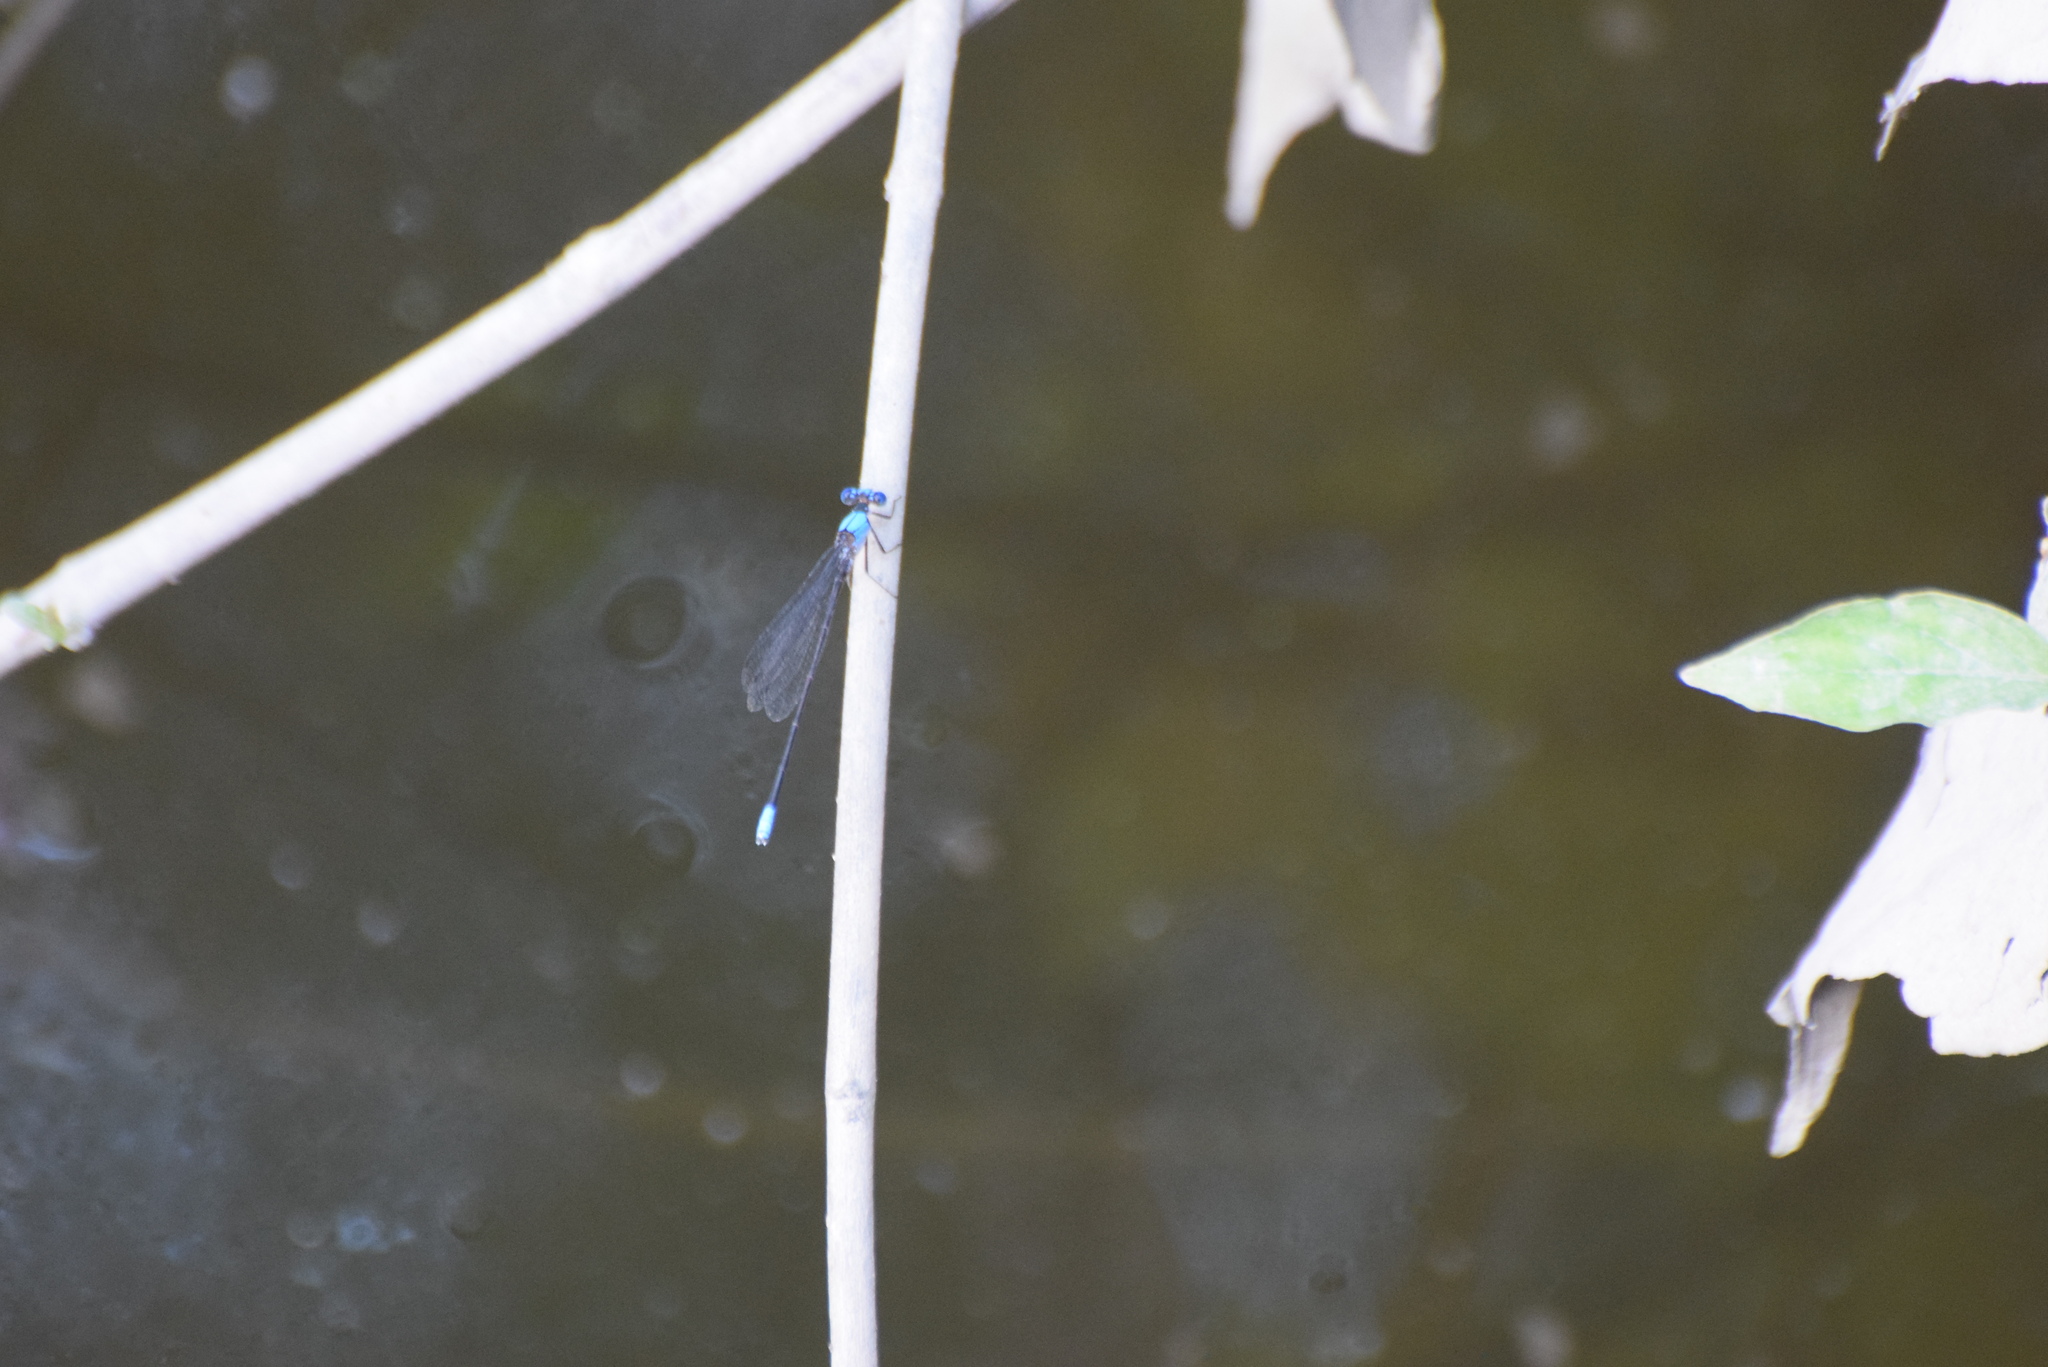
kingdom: Animalia
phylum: Arthropoda
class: Insecta
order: Odonata
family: Coenagrionidae
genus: Argia
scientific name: Argia apicalis
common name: Blue-fronted dancer
